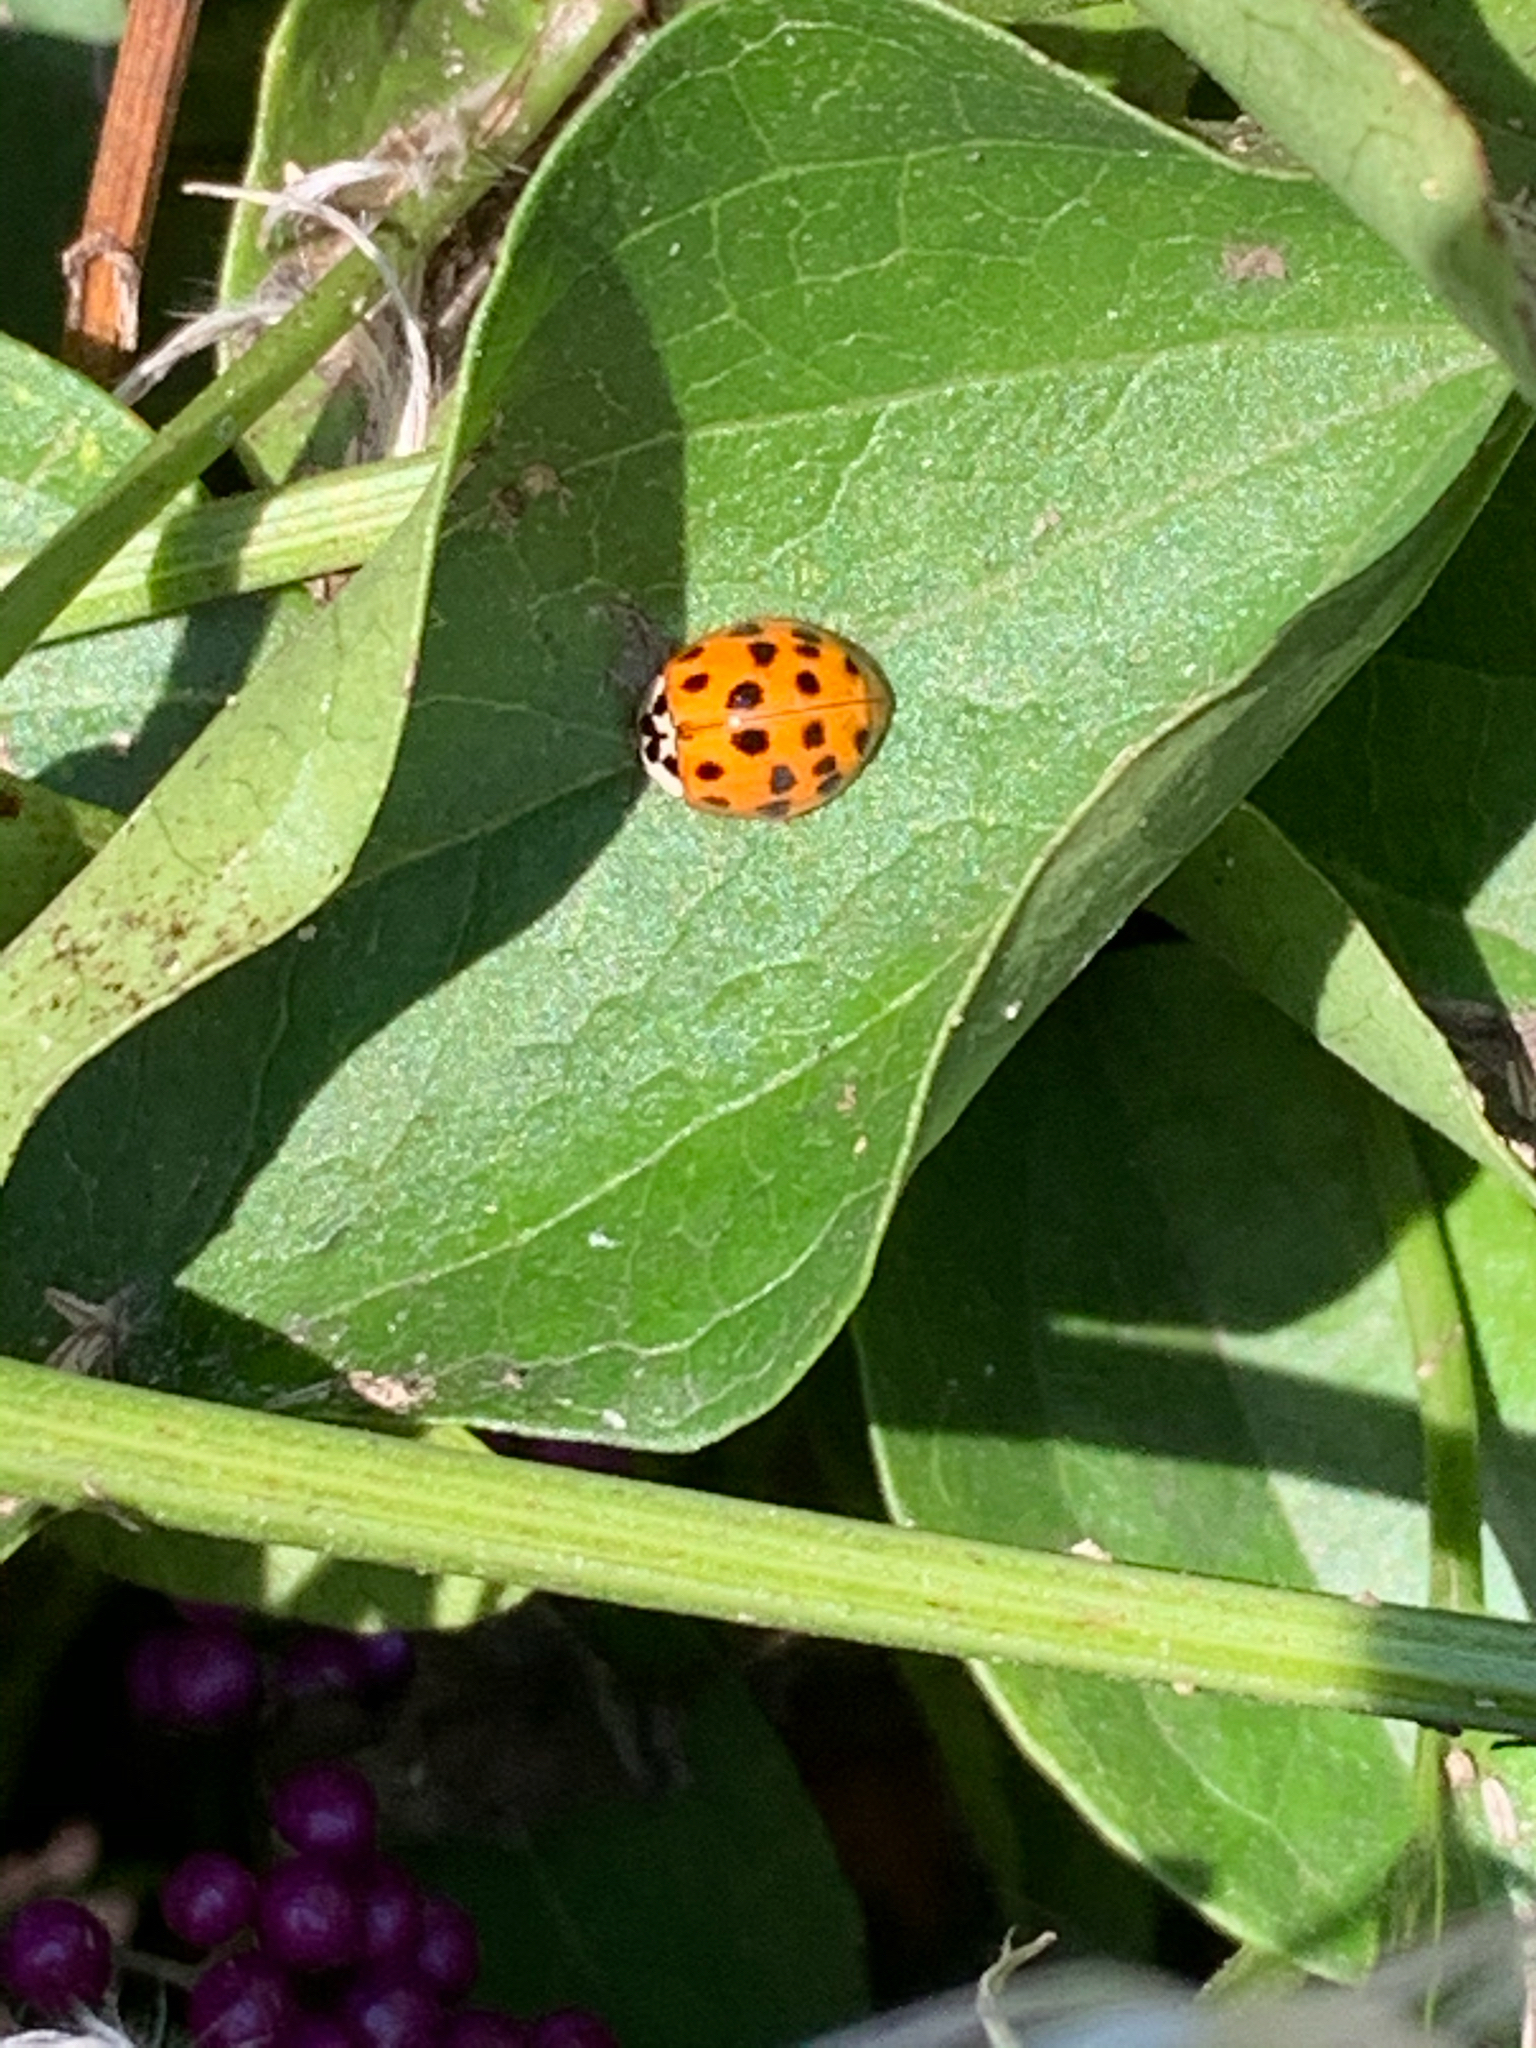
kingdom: Animalia
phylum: Arthropoda
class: Insecta
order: Coleoptera
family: Coccinellidae
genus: Harmonia
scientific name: Harmonia axyridis
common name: Harlequin ladybird
